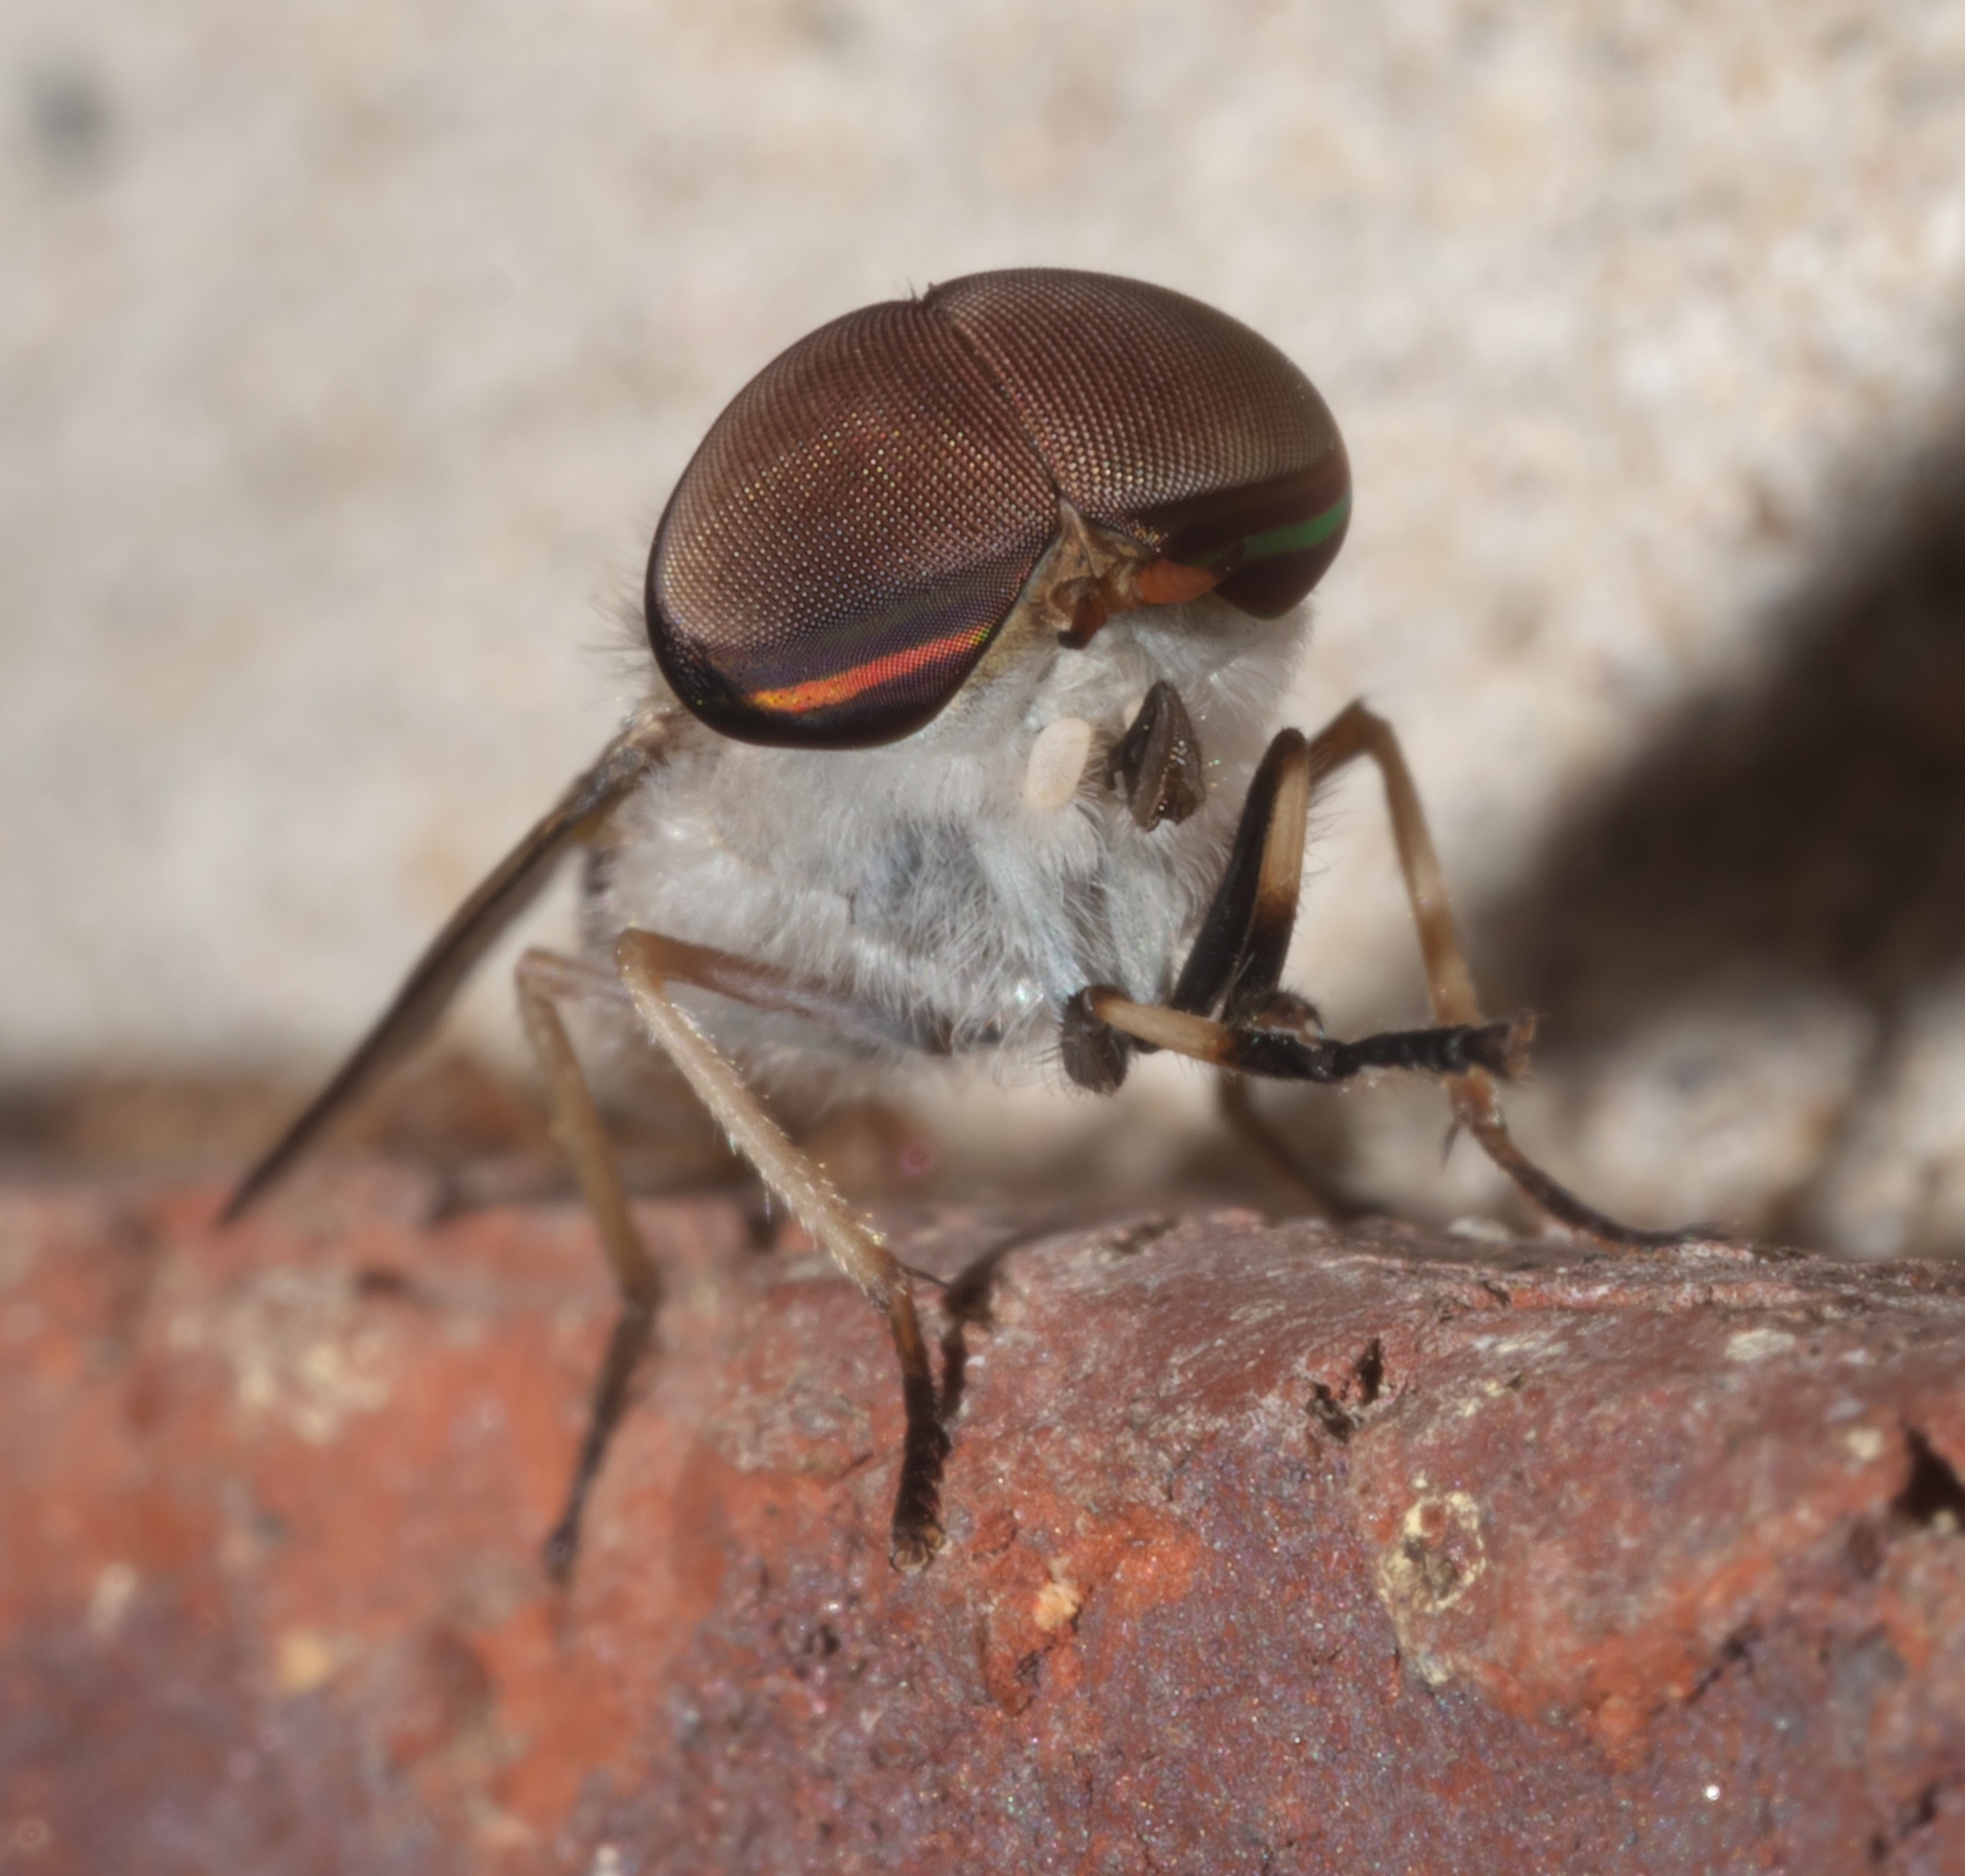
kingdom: Animalia
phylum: Arthropoda
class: Insecta
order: Diptera
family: Tabanidae
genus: Tabanus
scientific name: Tabanus lineola
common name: Striped horse fly
